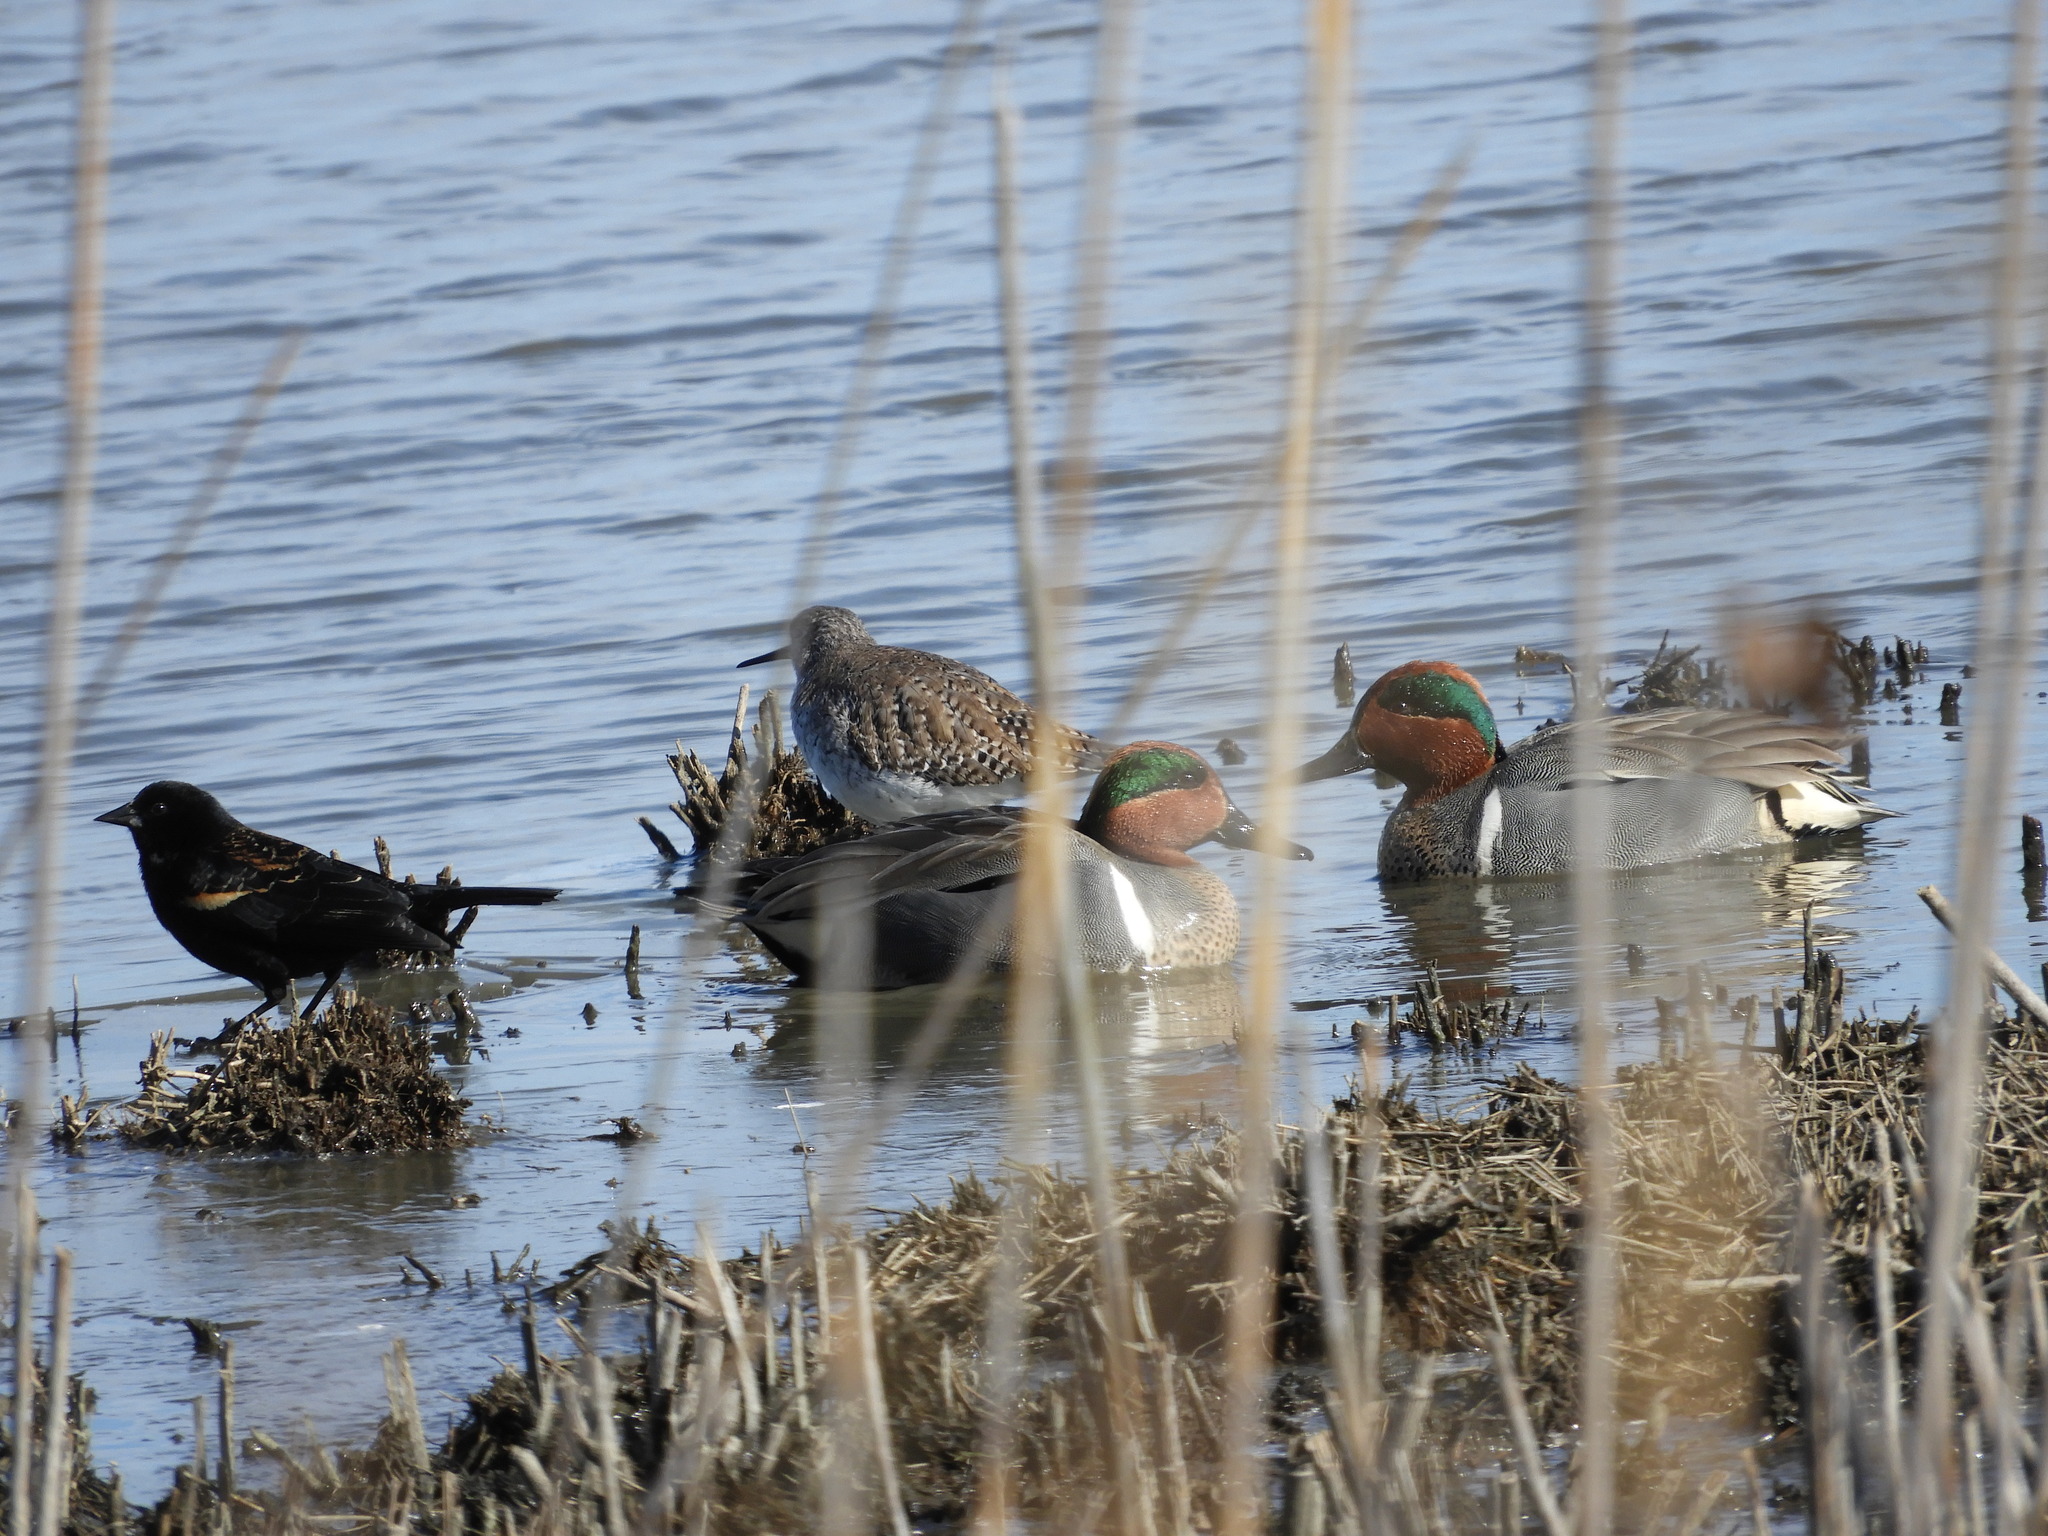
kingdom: Animalia
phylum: Chordata
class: Aves
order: Anseriformes
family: Anatidae
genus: Anas
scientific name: Anas crecca
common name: Eurasian teal
